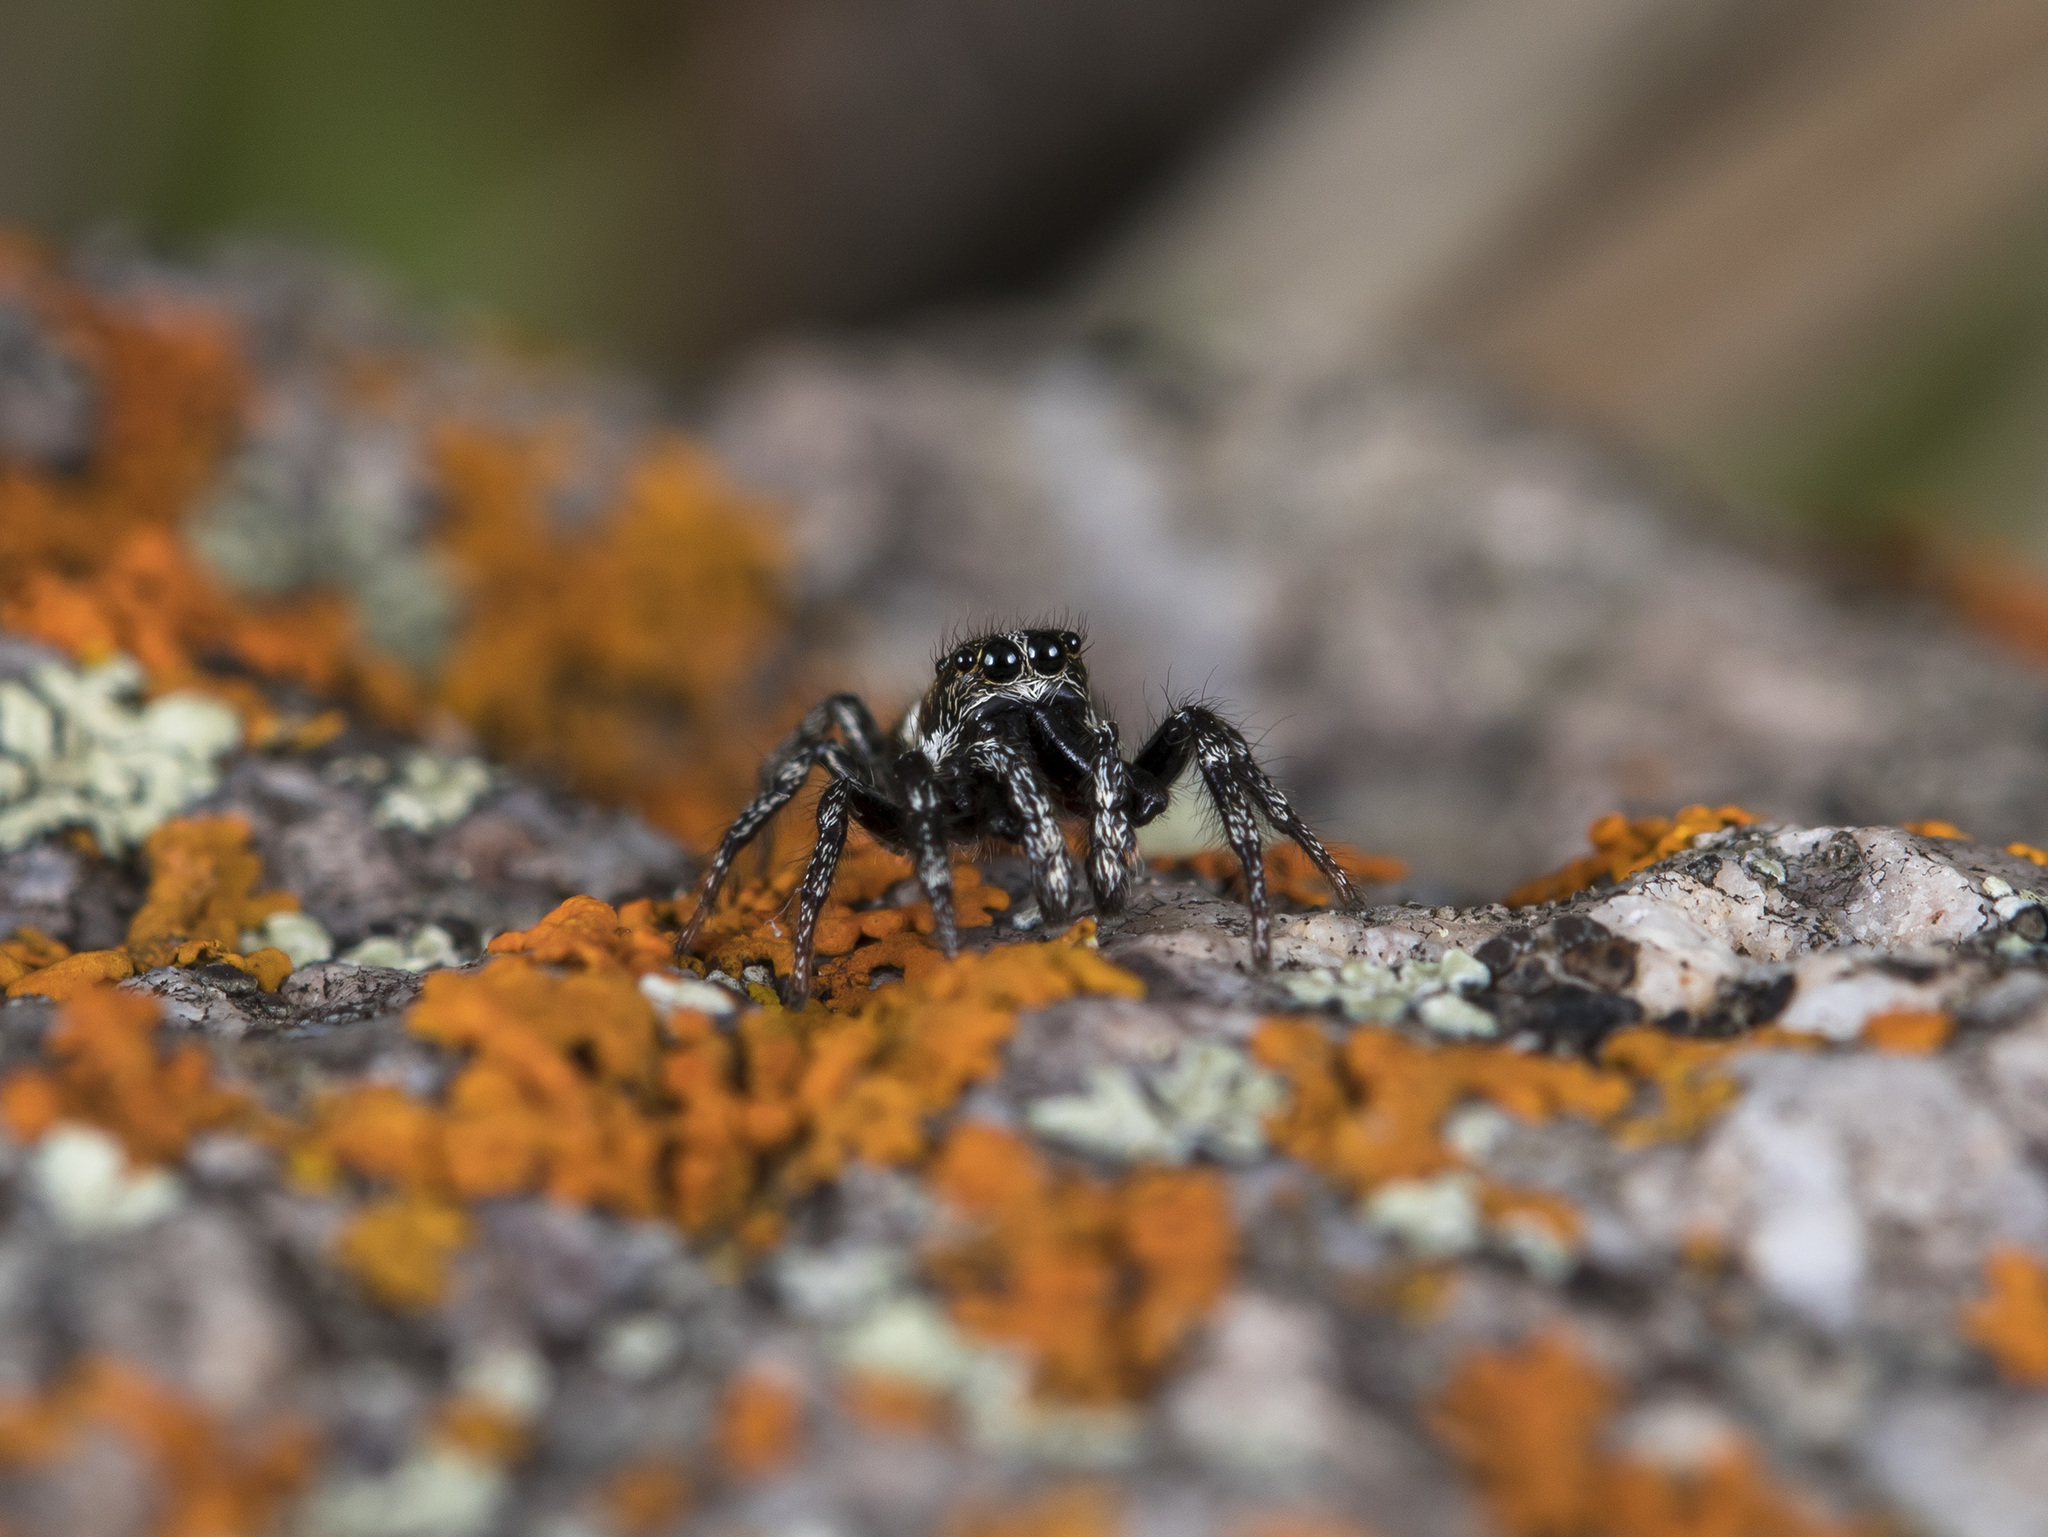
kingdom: Animalia
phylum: Arthropoda
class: Arachnida
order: Araneae
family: Salticidae
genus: Salticus
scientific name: Salticus scenicus
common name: Zebra jumper
